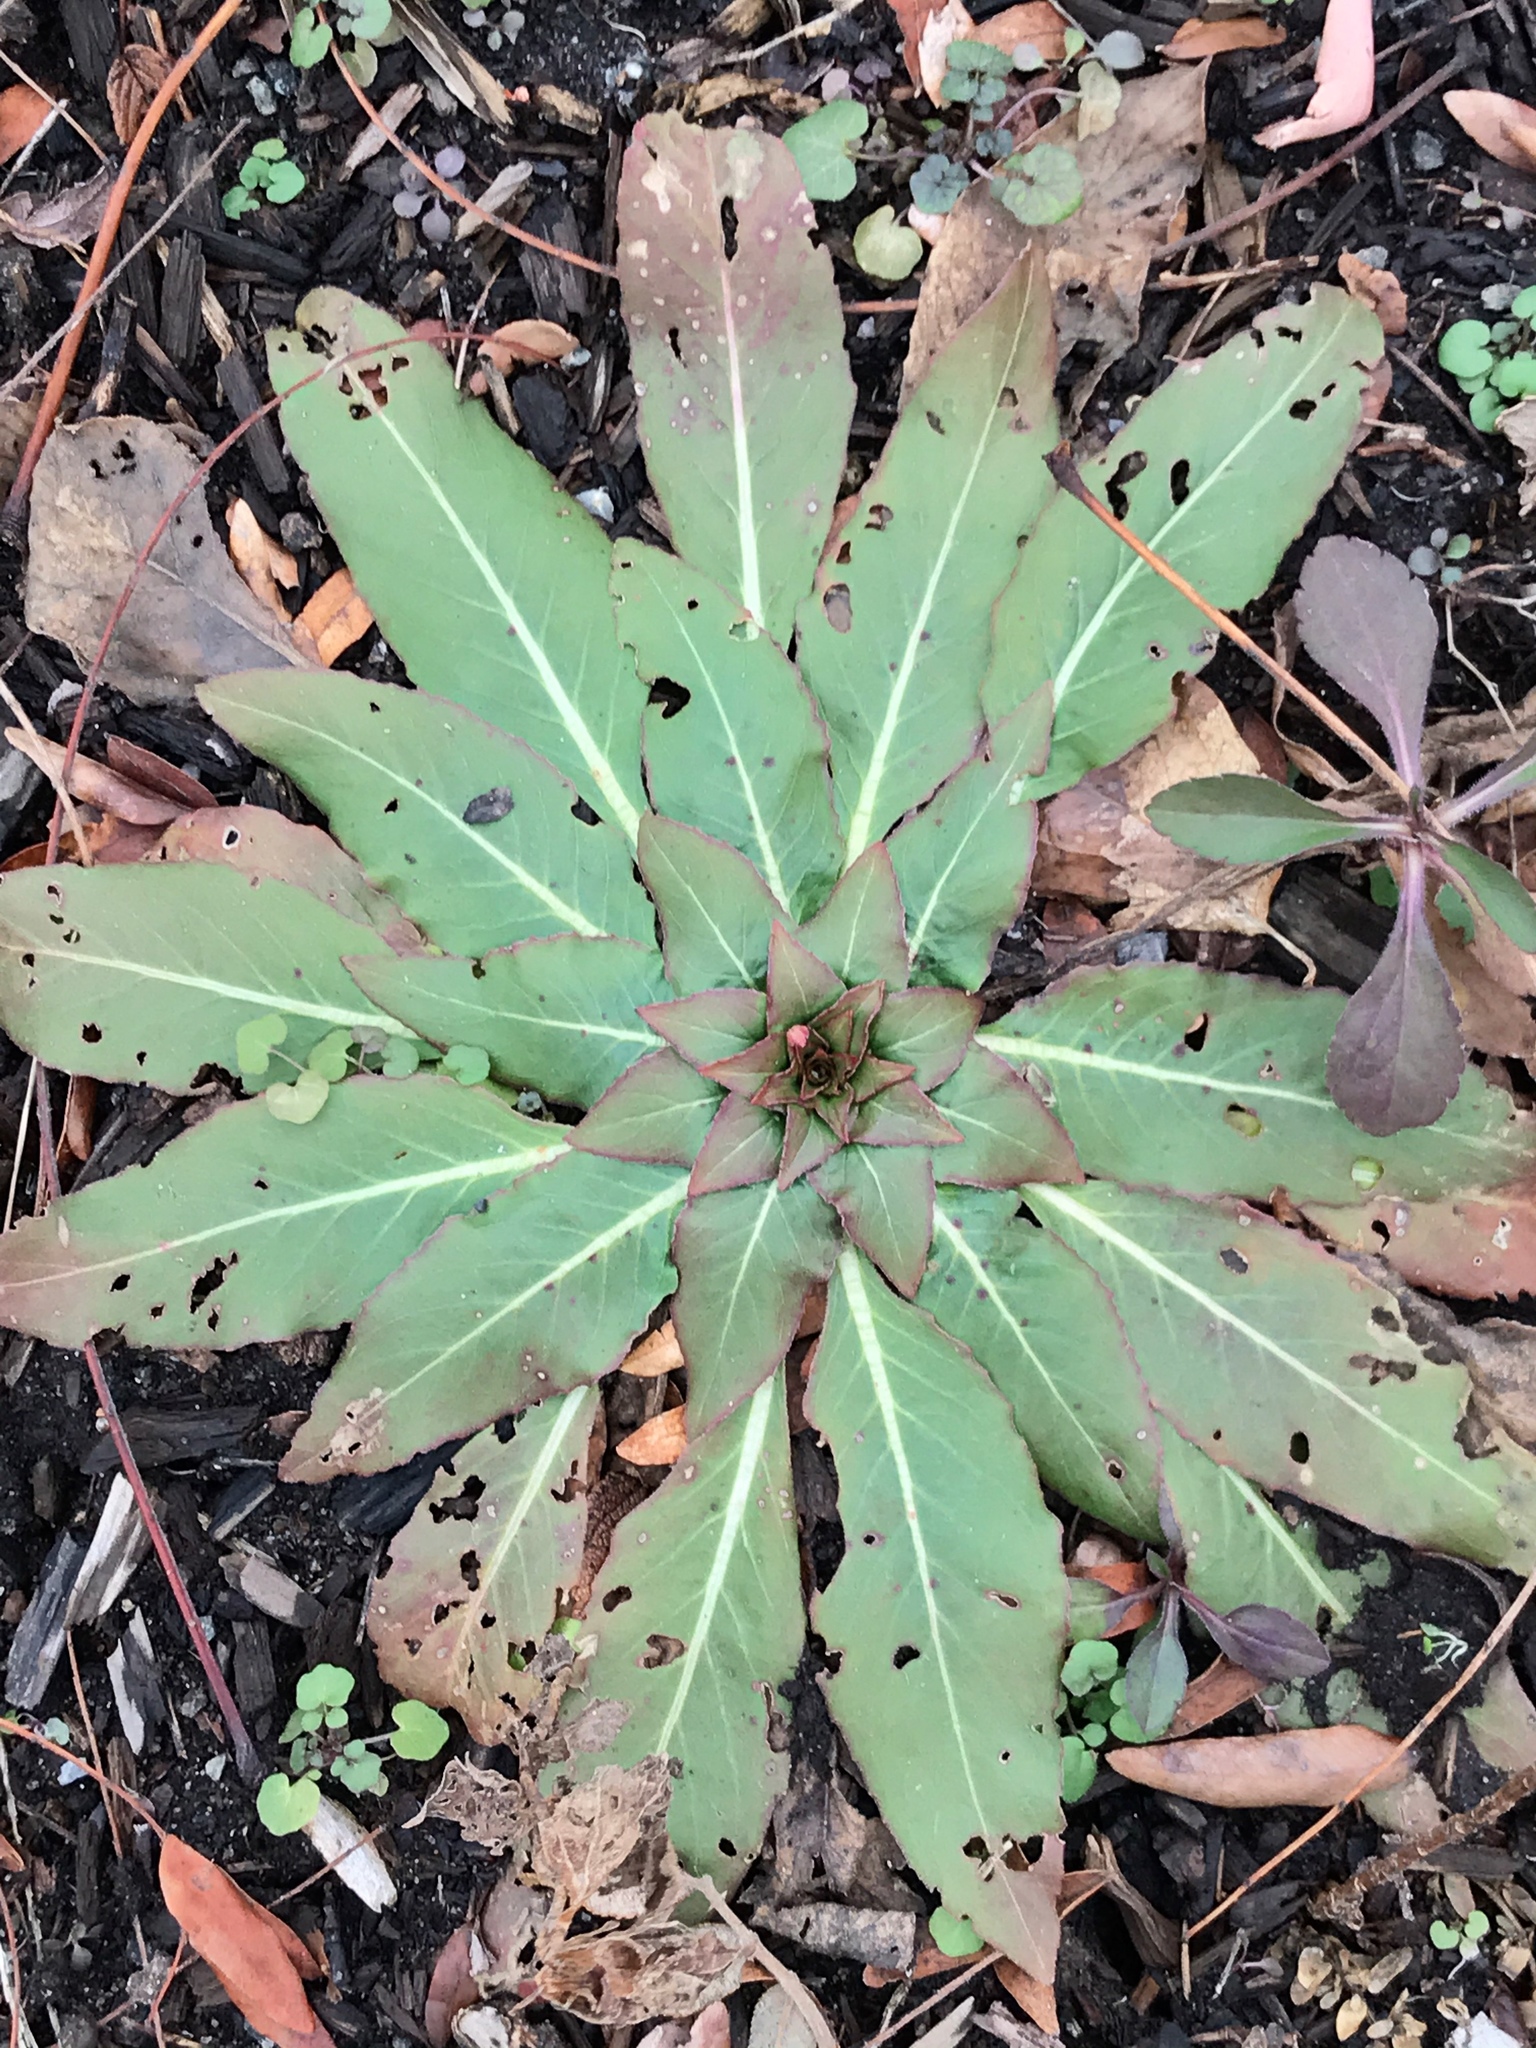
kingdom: Plantae
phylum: Tracheophyta
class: Magnoliopsida
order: Myrtales
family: Onagraceae
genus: Oenothera
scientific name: Oenothera biennis
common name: Common evening-primrose
